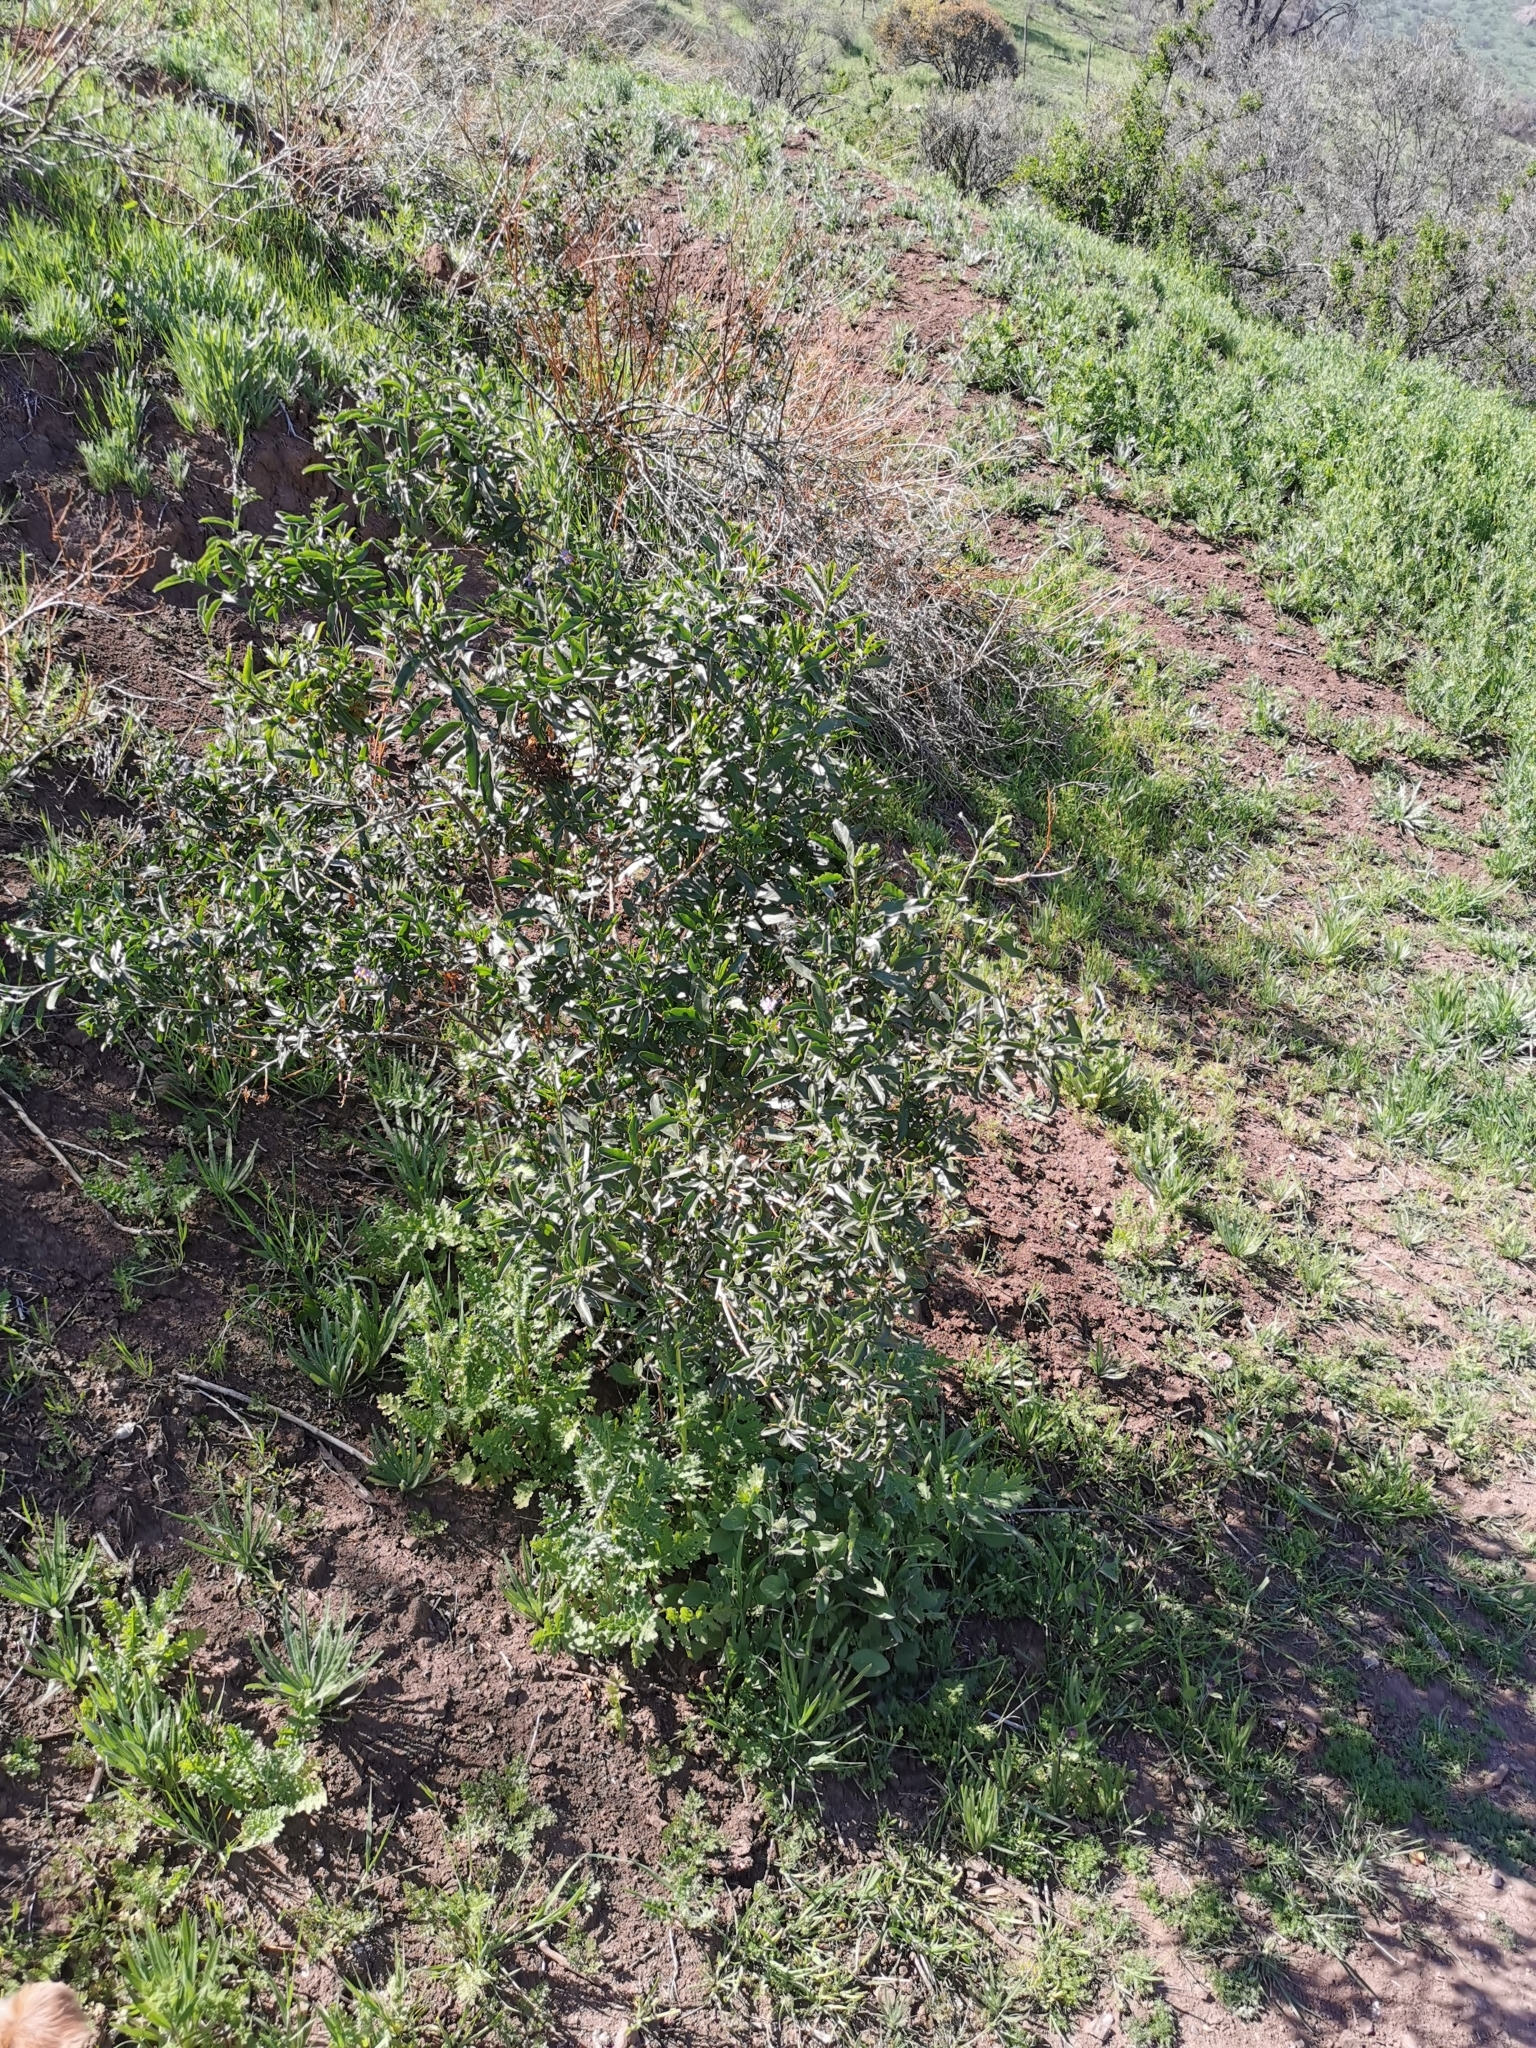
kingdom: Plantae
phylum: Tracheophyta
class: Magnoliopsida
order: Solanales
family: Solanaceae
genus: Solanum
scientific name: Solanum crispum
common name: Chilean nightshade
